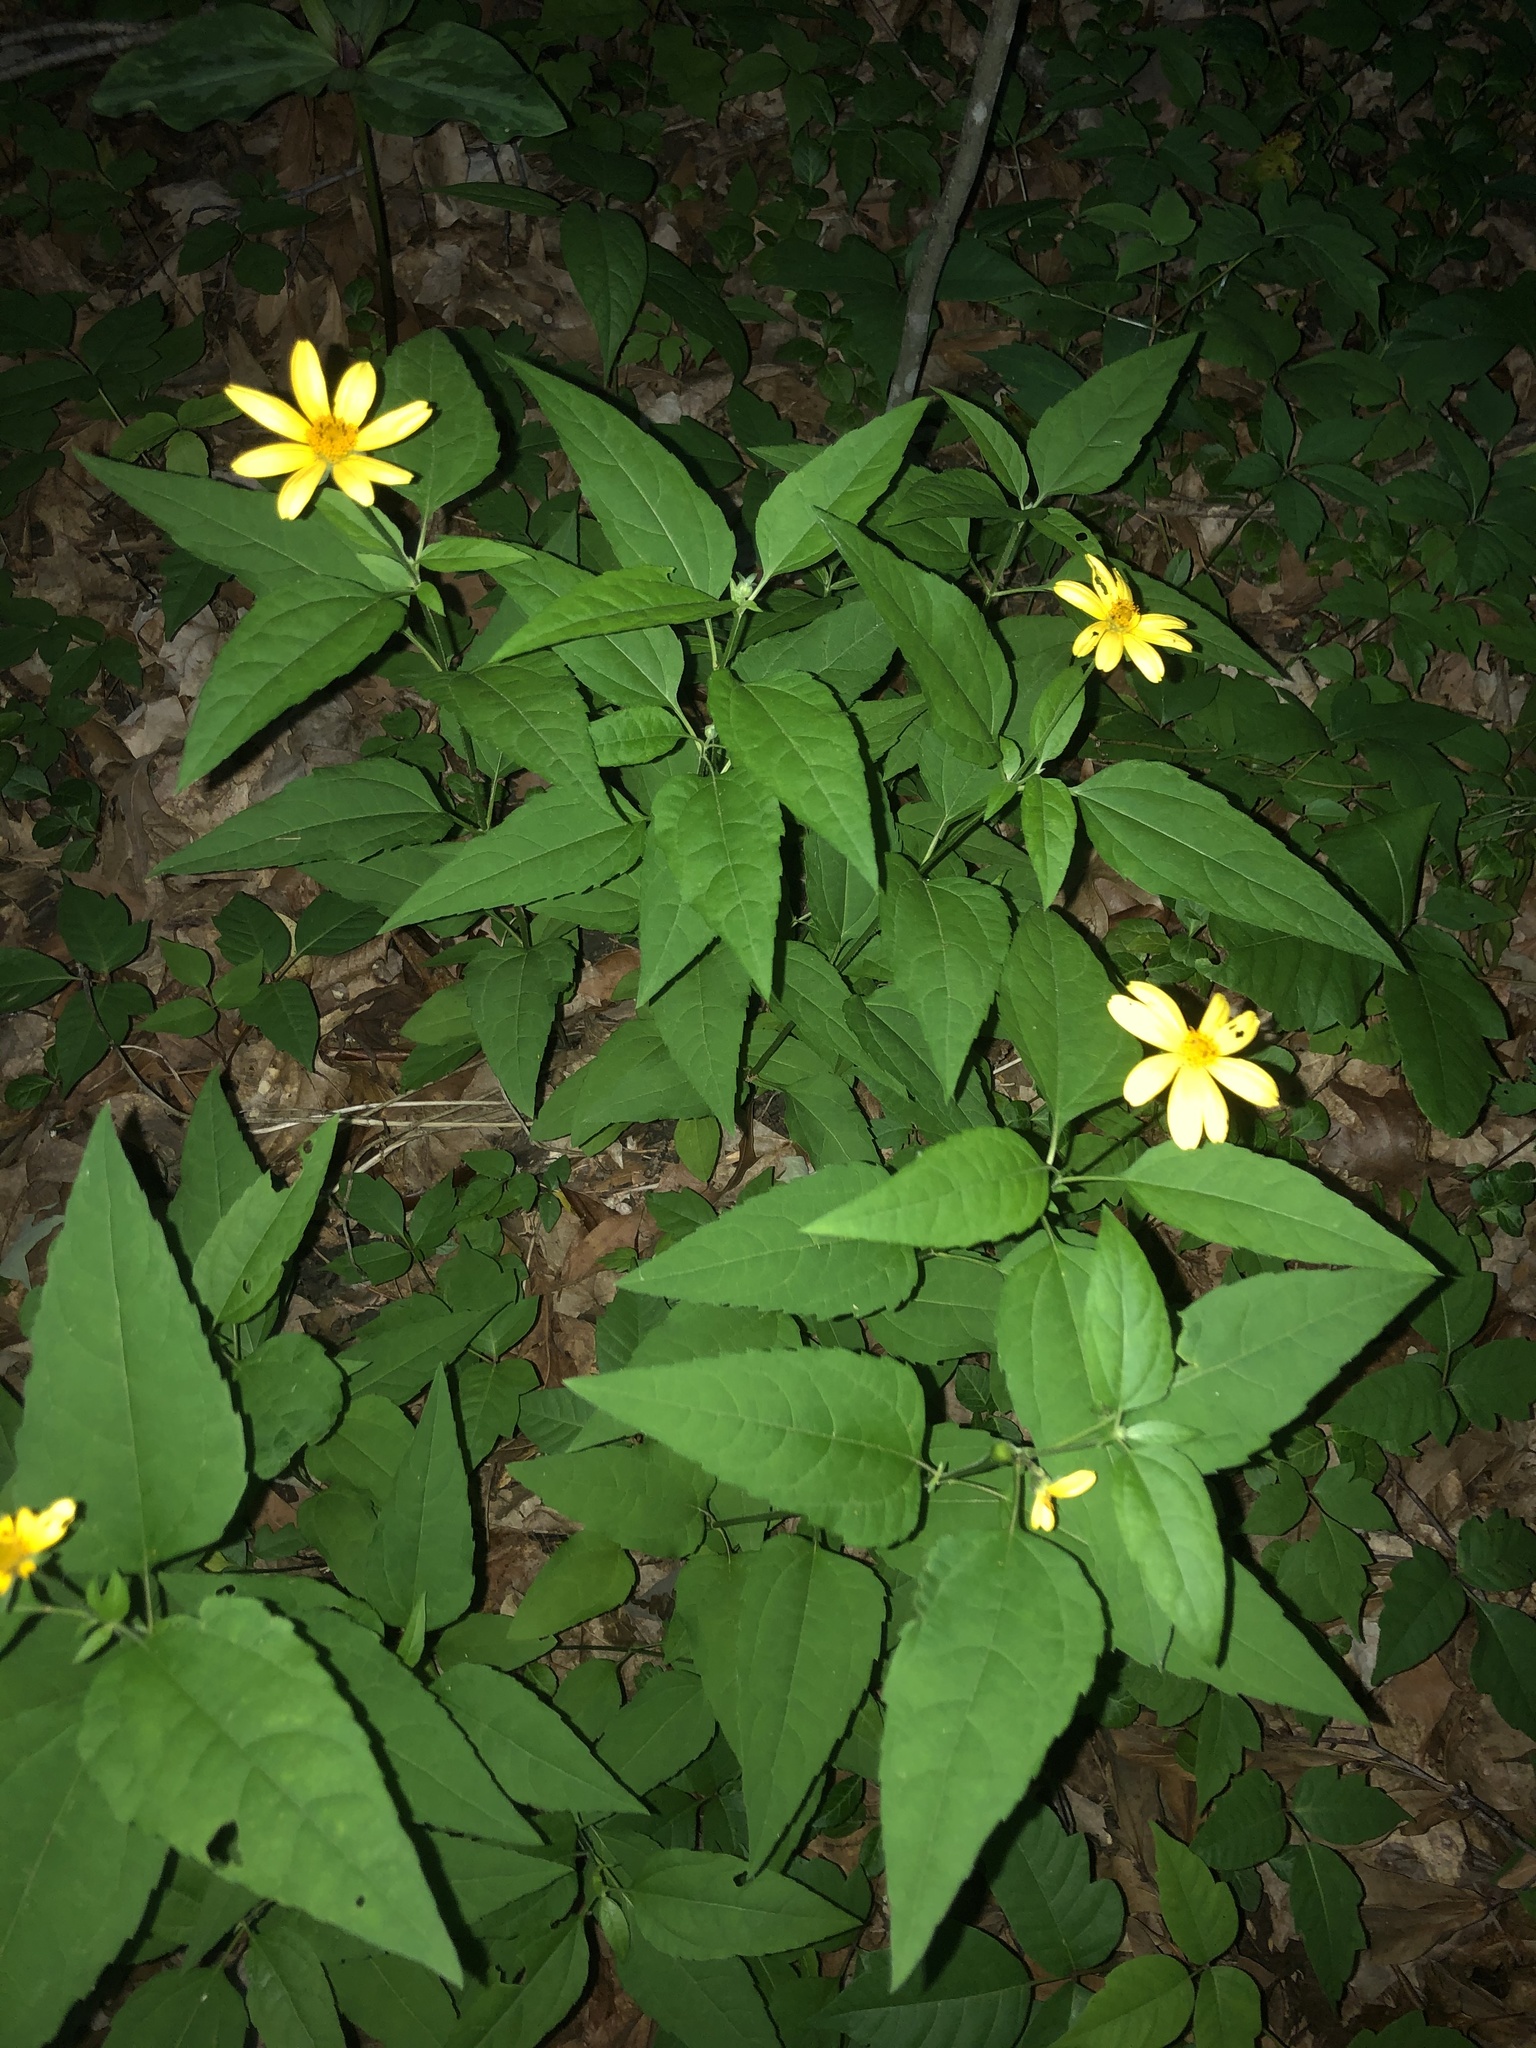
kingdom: Plantae
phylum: Tracheophyta
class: Magnoliopsida
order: Asterales
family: Asteraceae
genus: Heliopsis
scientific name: Heliopsis gracilis
